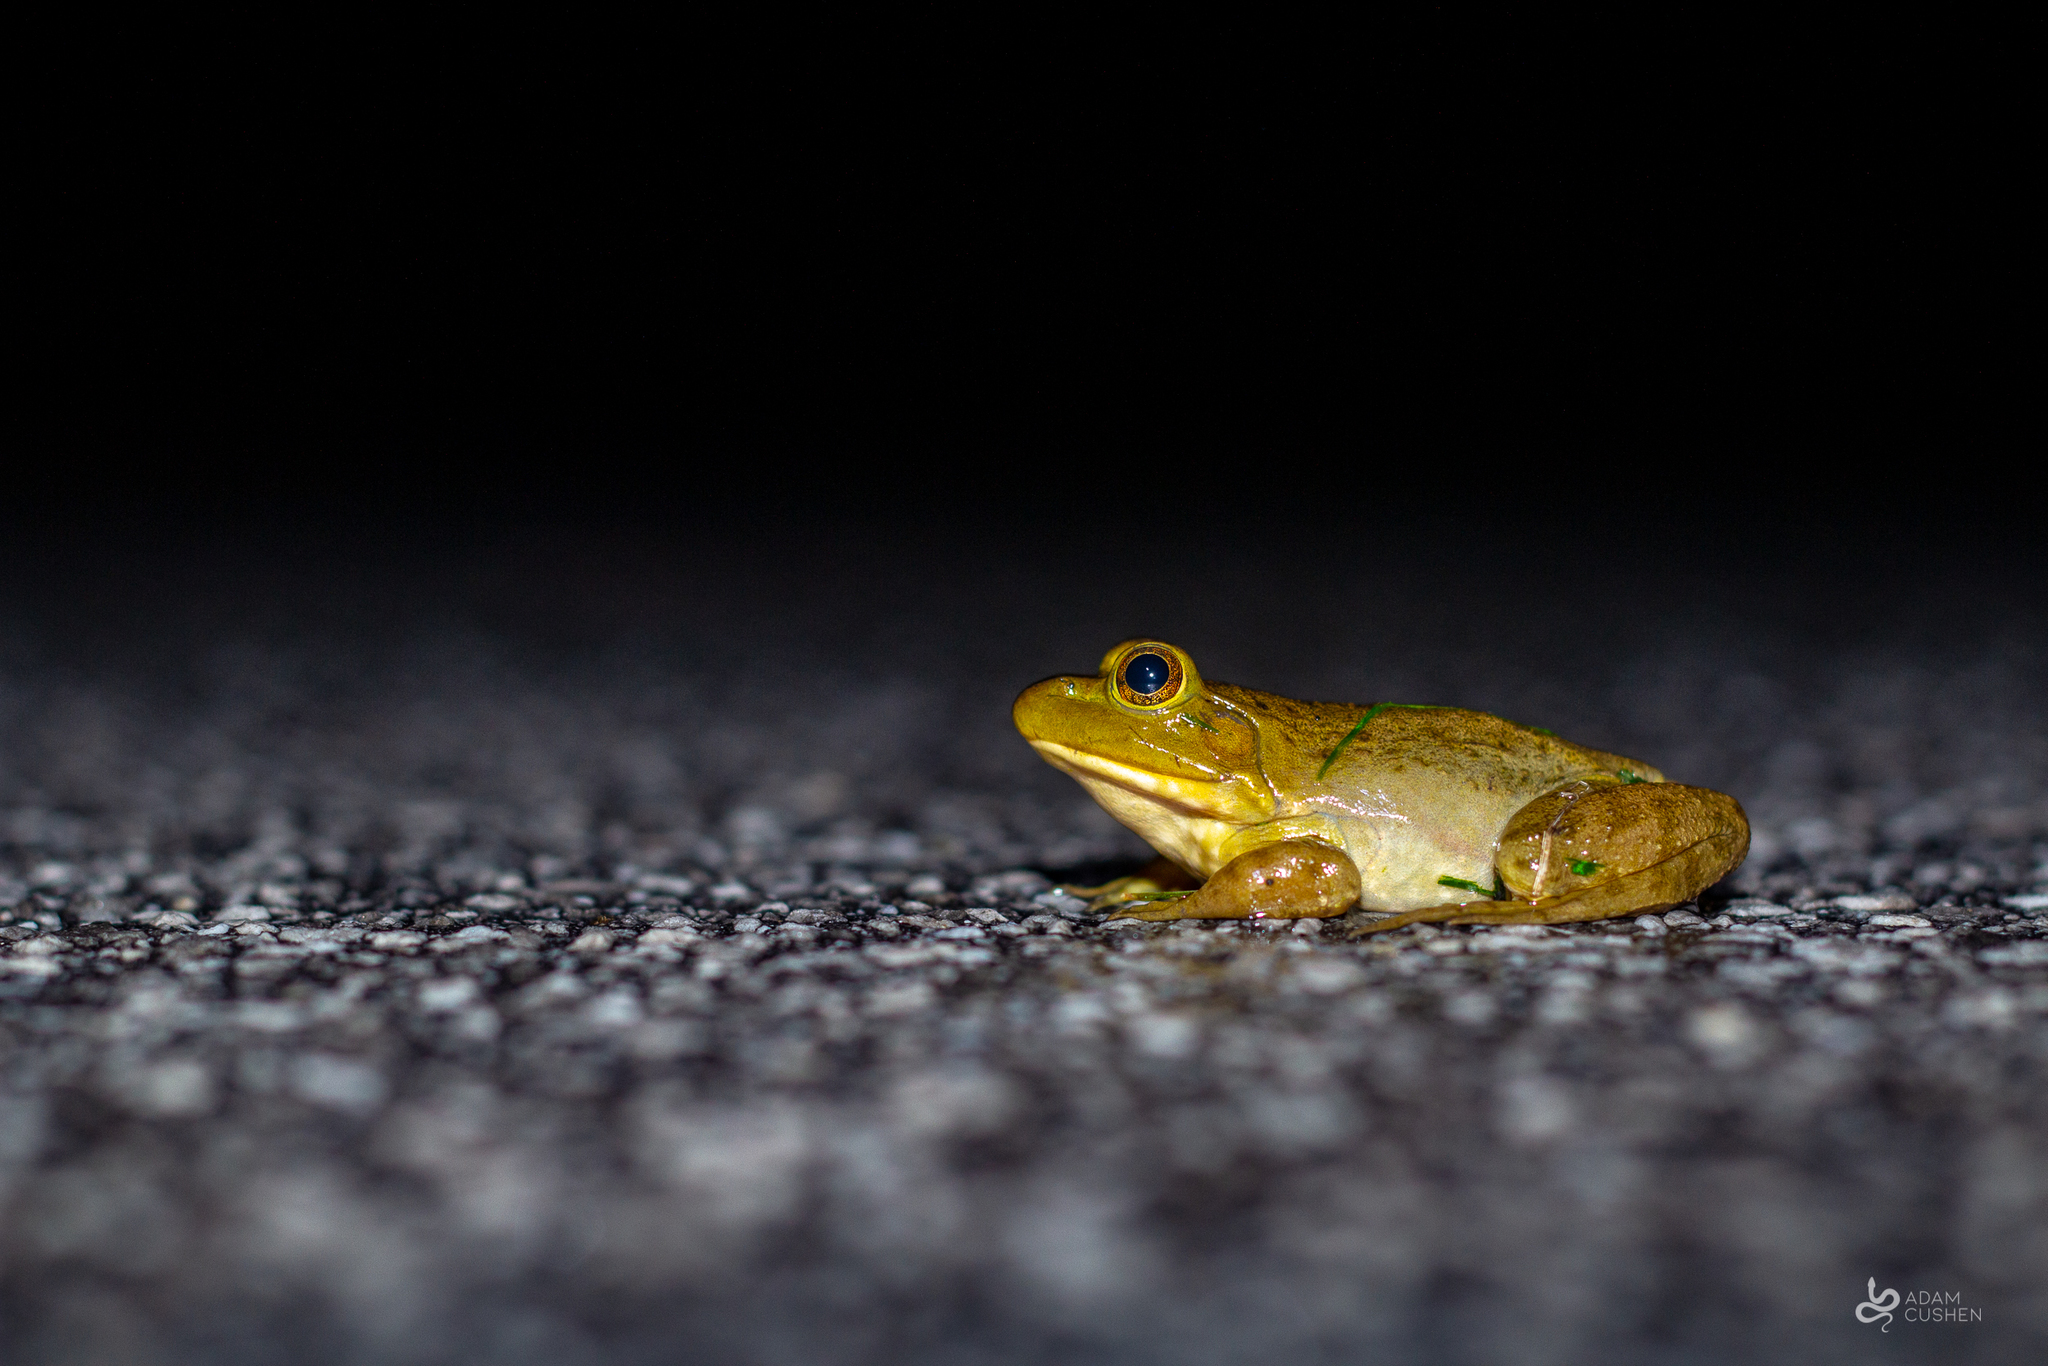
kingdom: Animalia
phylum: Chordata
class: Amphibia
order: Anura
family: Ranidae
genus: Lithobates
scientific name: Lithobates catesbeianus
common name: American bullfrog
